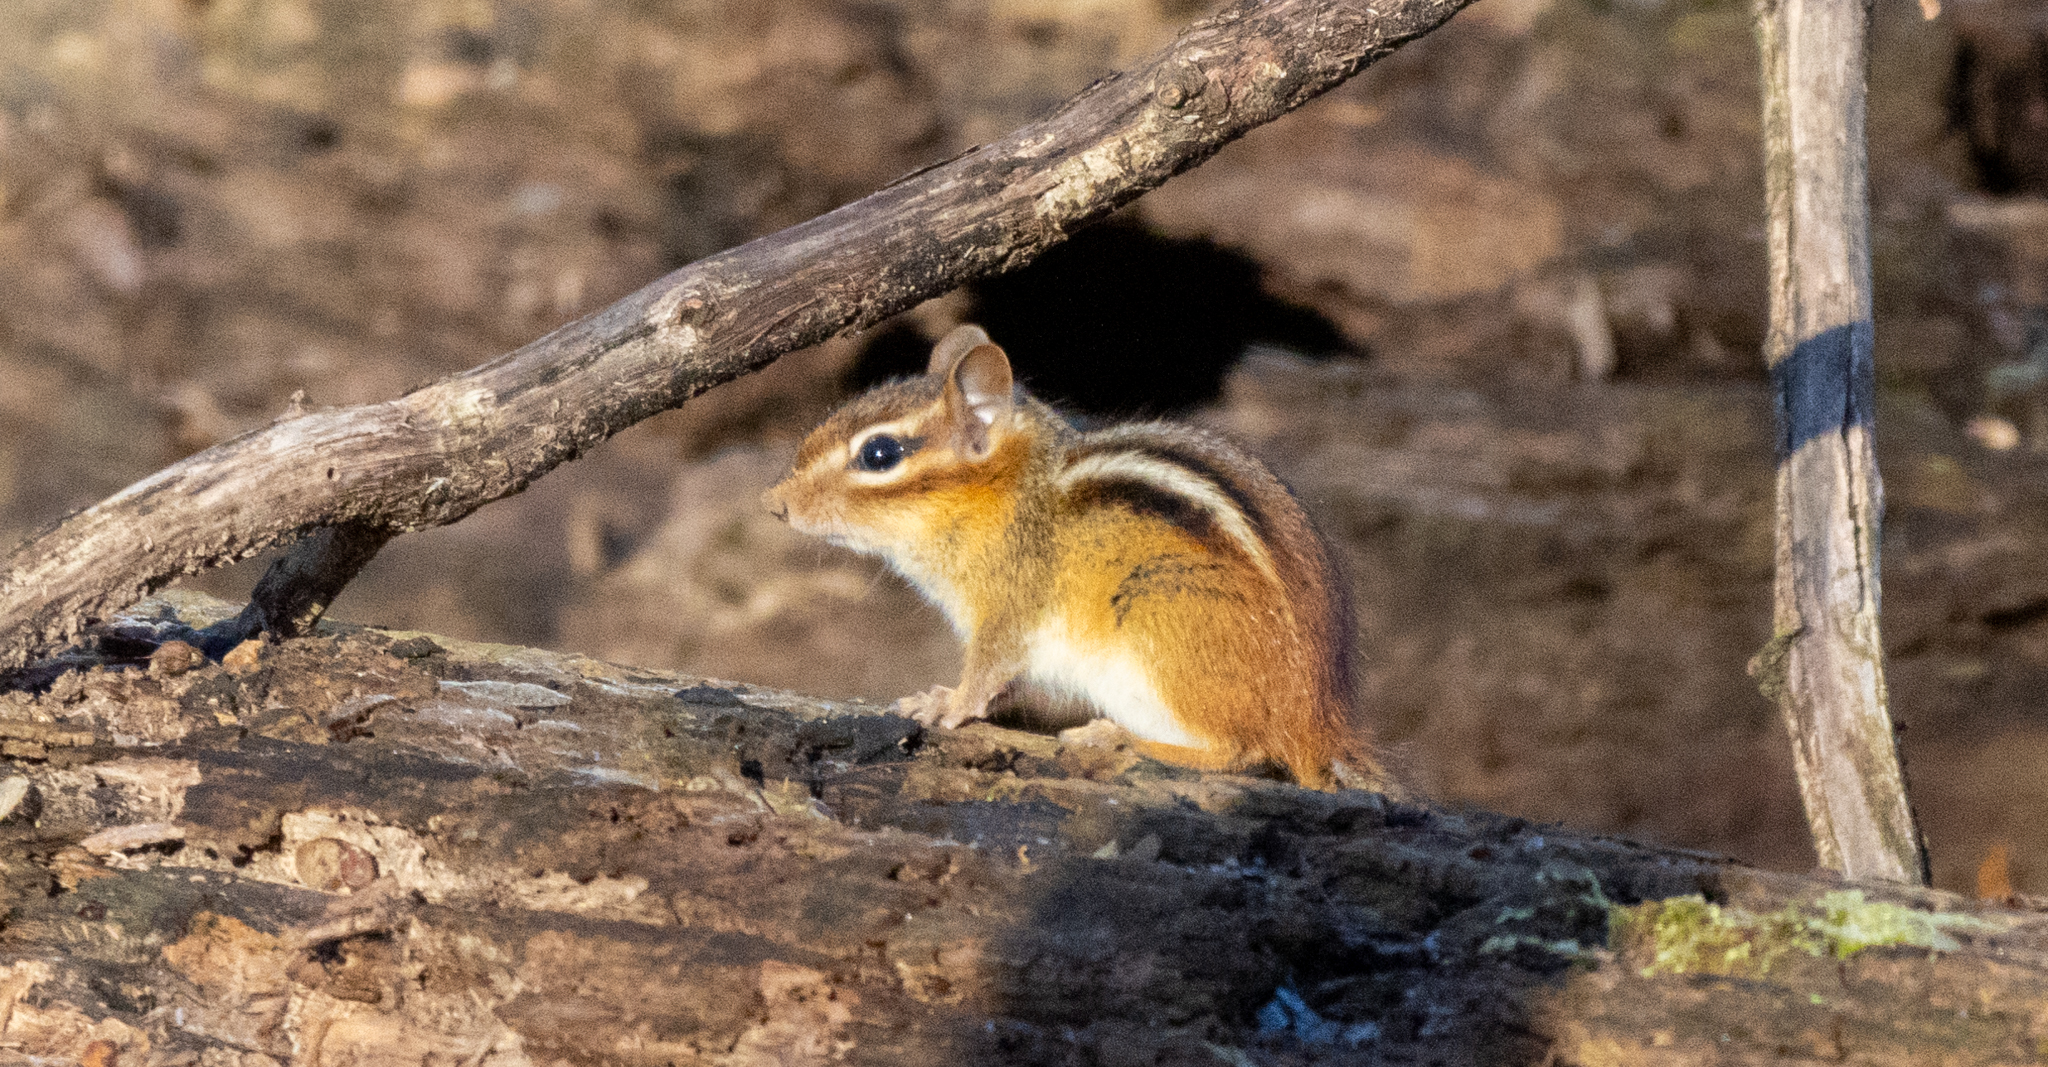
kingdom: Animalia
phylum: Chordata
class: Mammalia
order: Rodentia
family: Sciuridae
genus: Tamias
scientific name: Tamias striatus
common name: Eastern chipmunk
